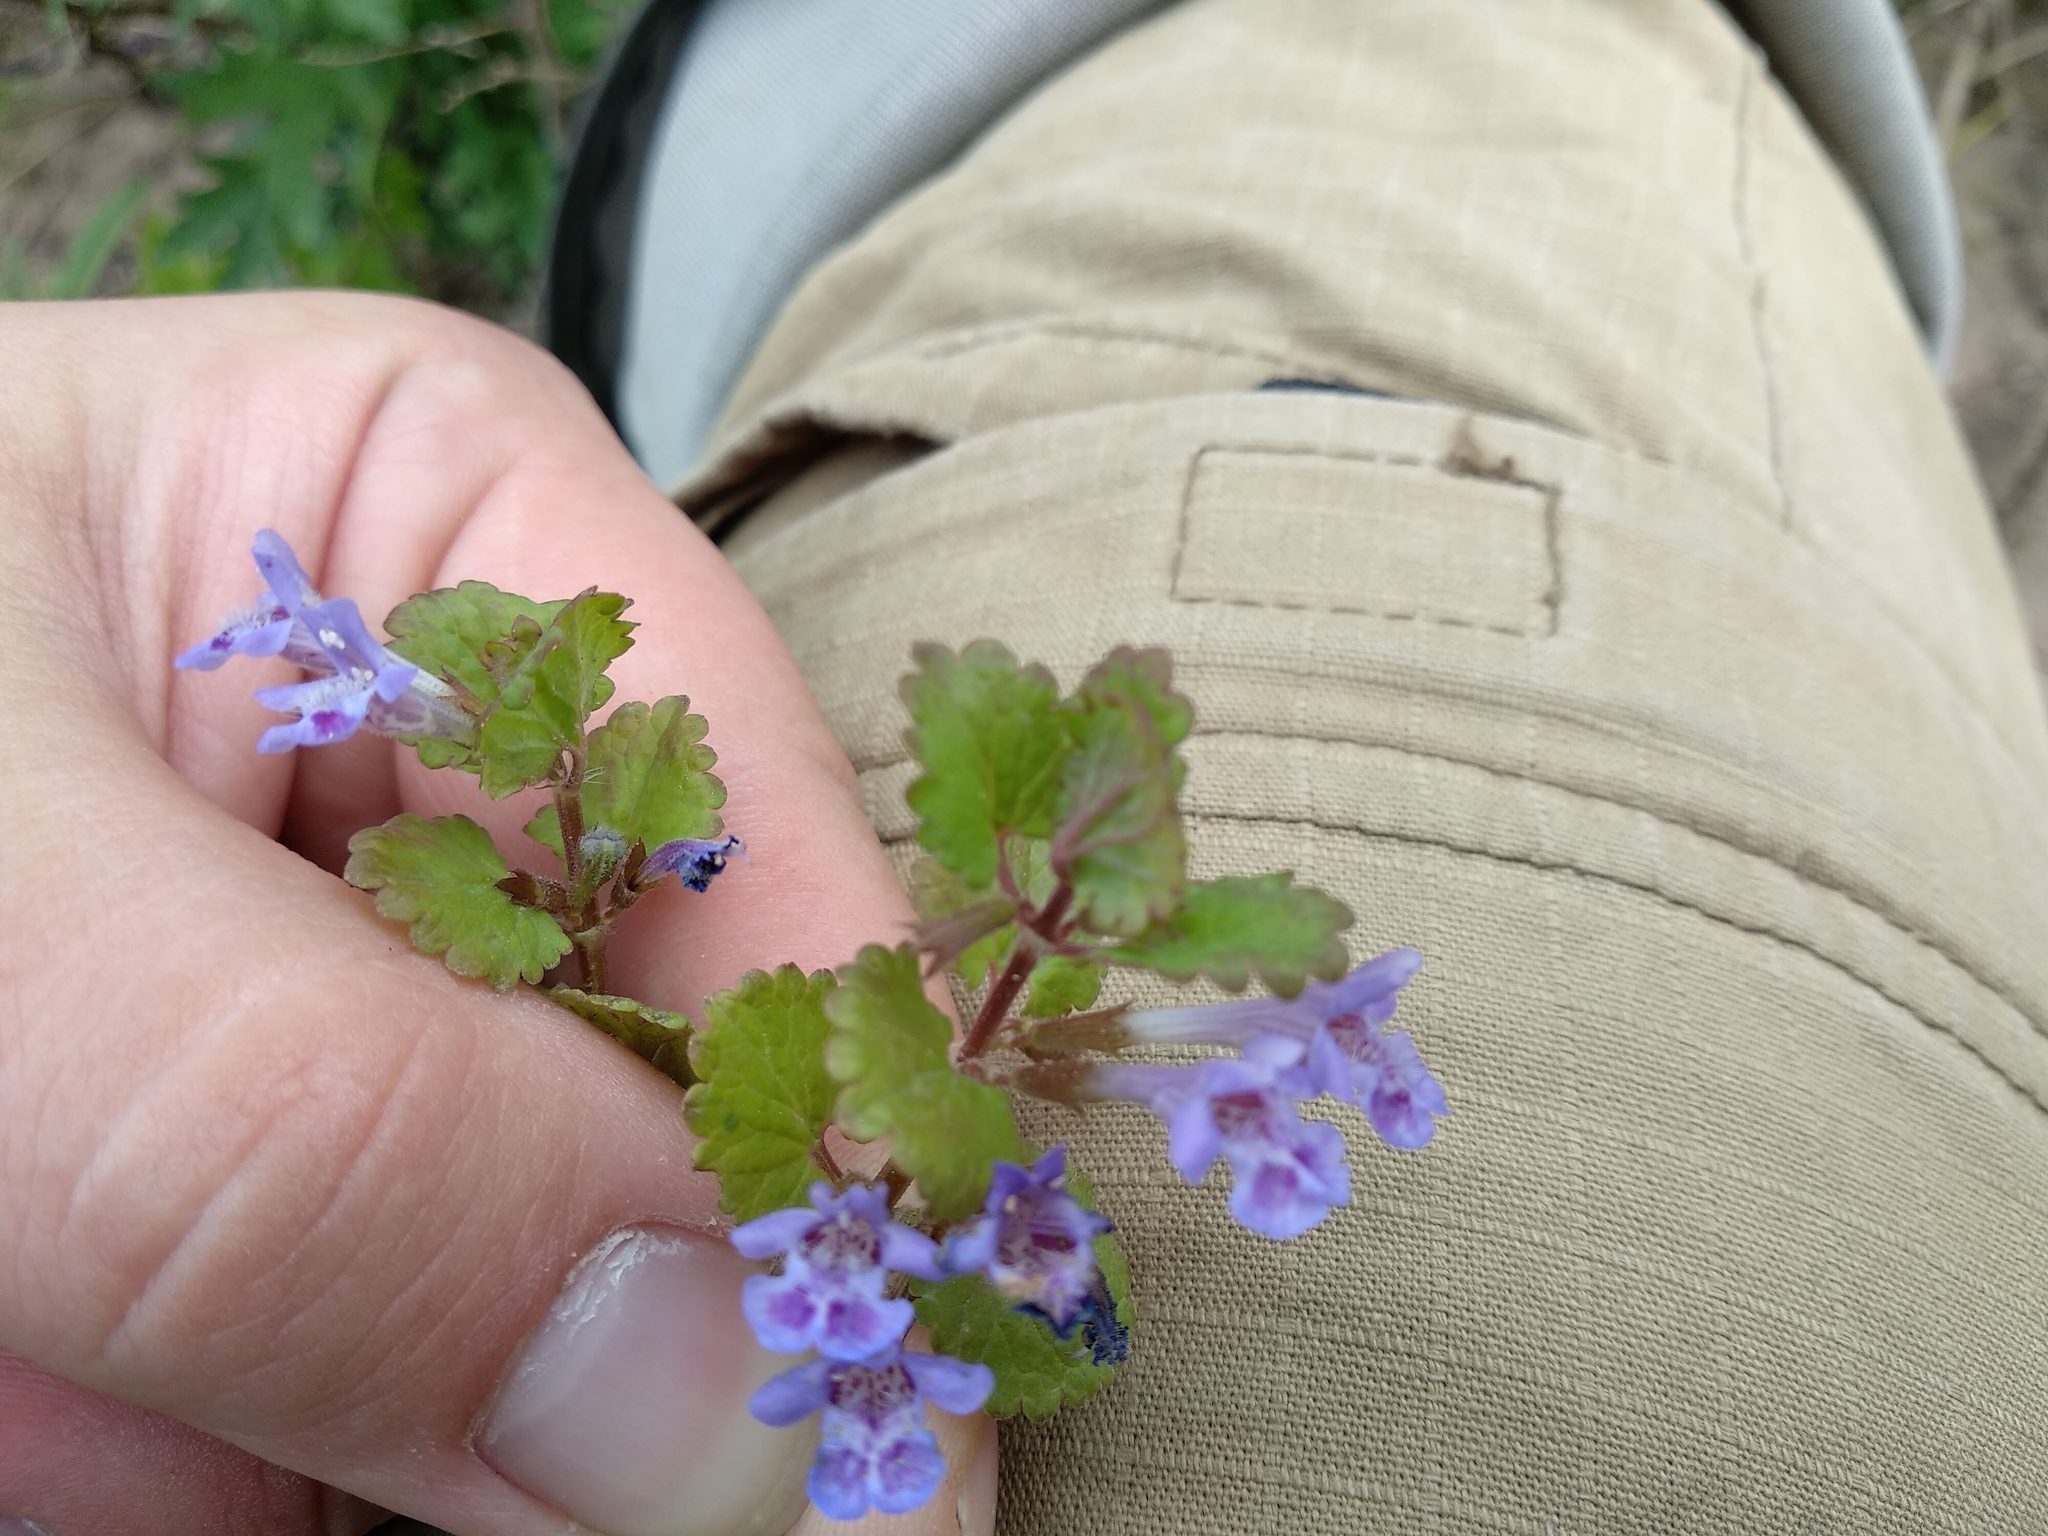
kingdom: Plantae
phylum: Tracheophyta
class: Magnoliopsida
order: Lamiales
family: Lamiaceae
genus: Glechoma
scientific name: Glechoma hederacea
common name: Ground ivy
